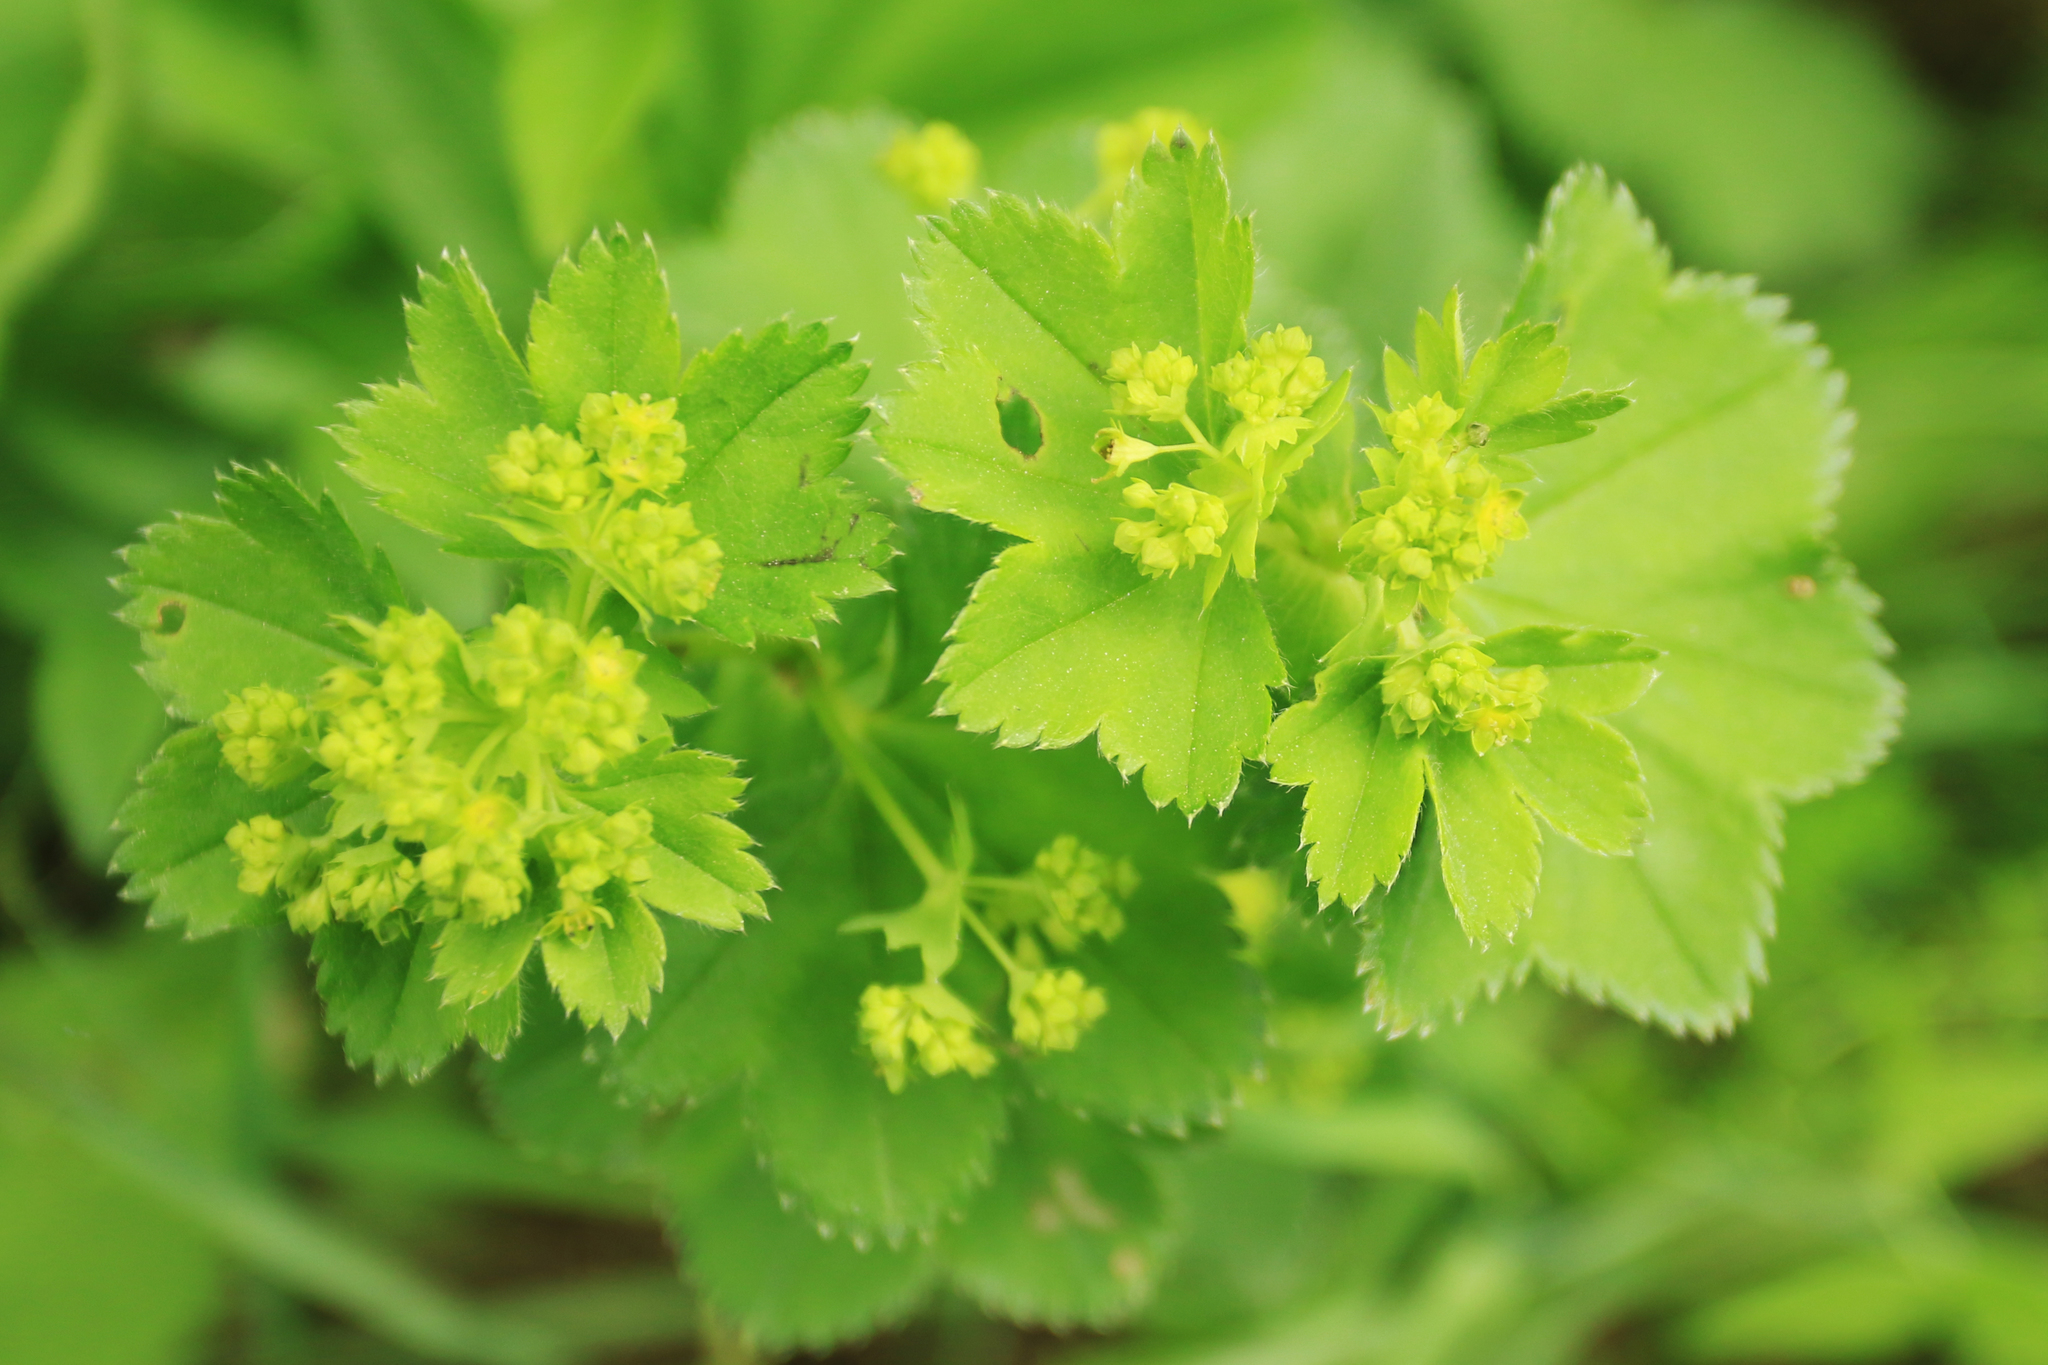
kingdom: Plantae
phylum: Tracheophyta
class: Magnoliopsida
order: Rosales
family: Rosaceae
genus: Alchemilla
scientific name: Alchemilla
